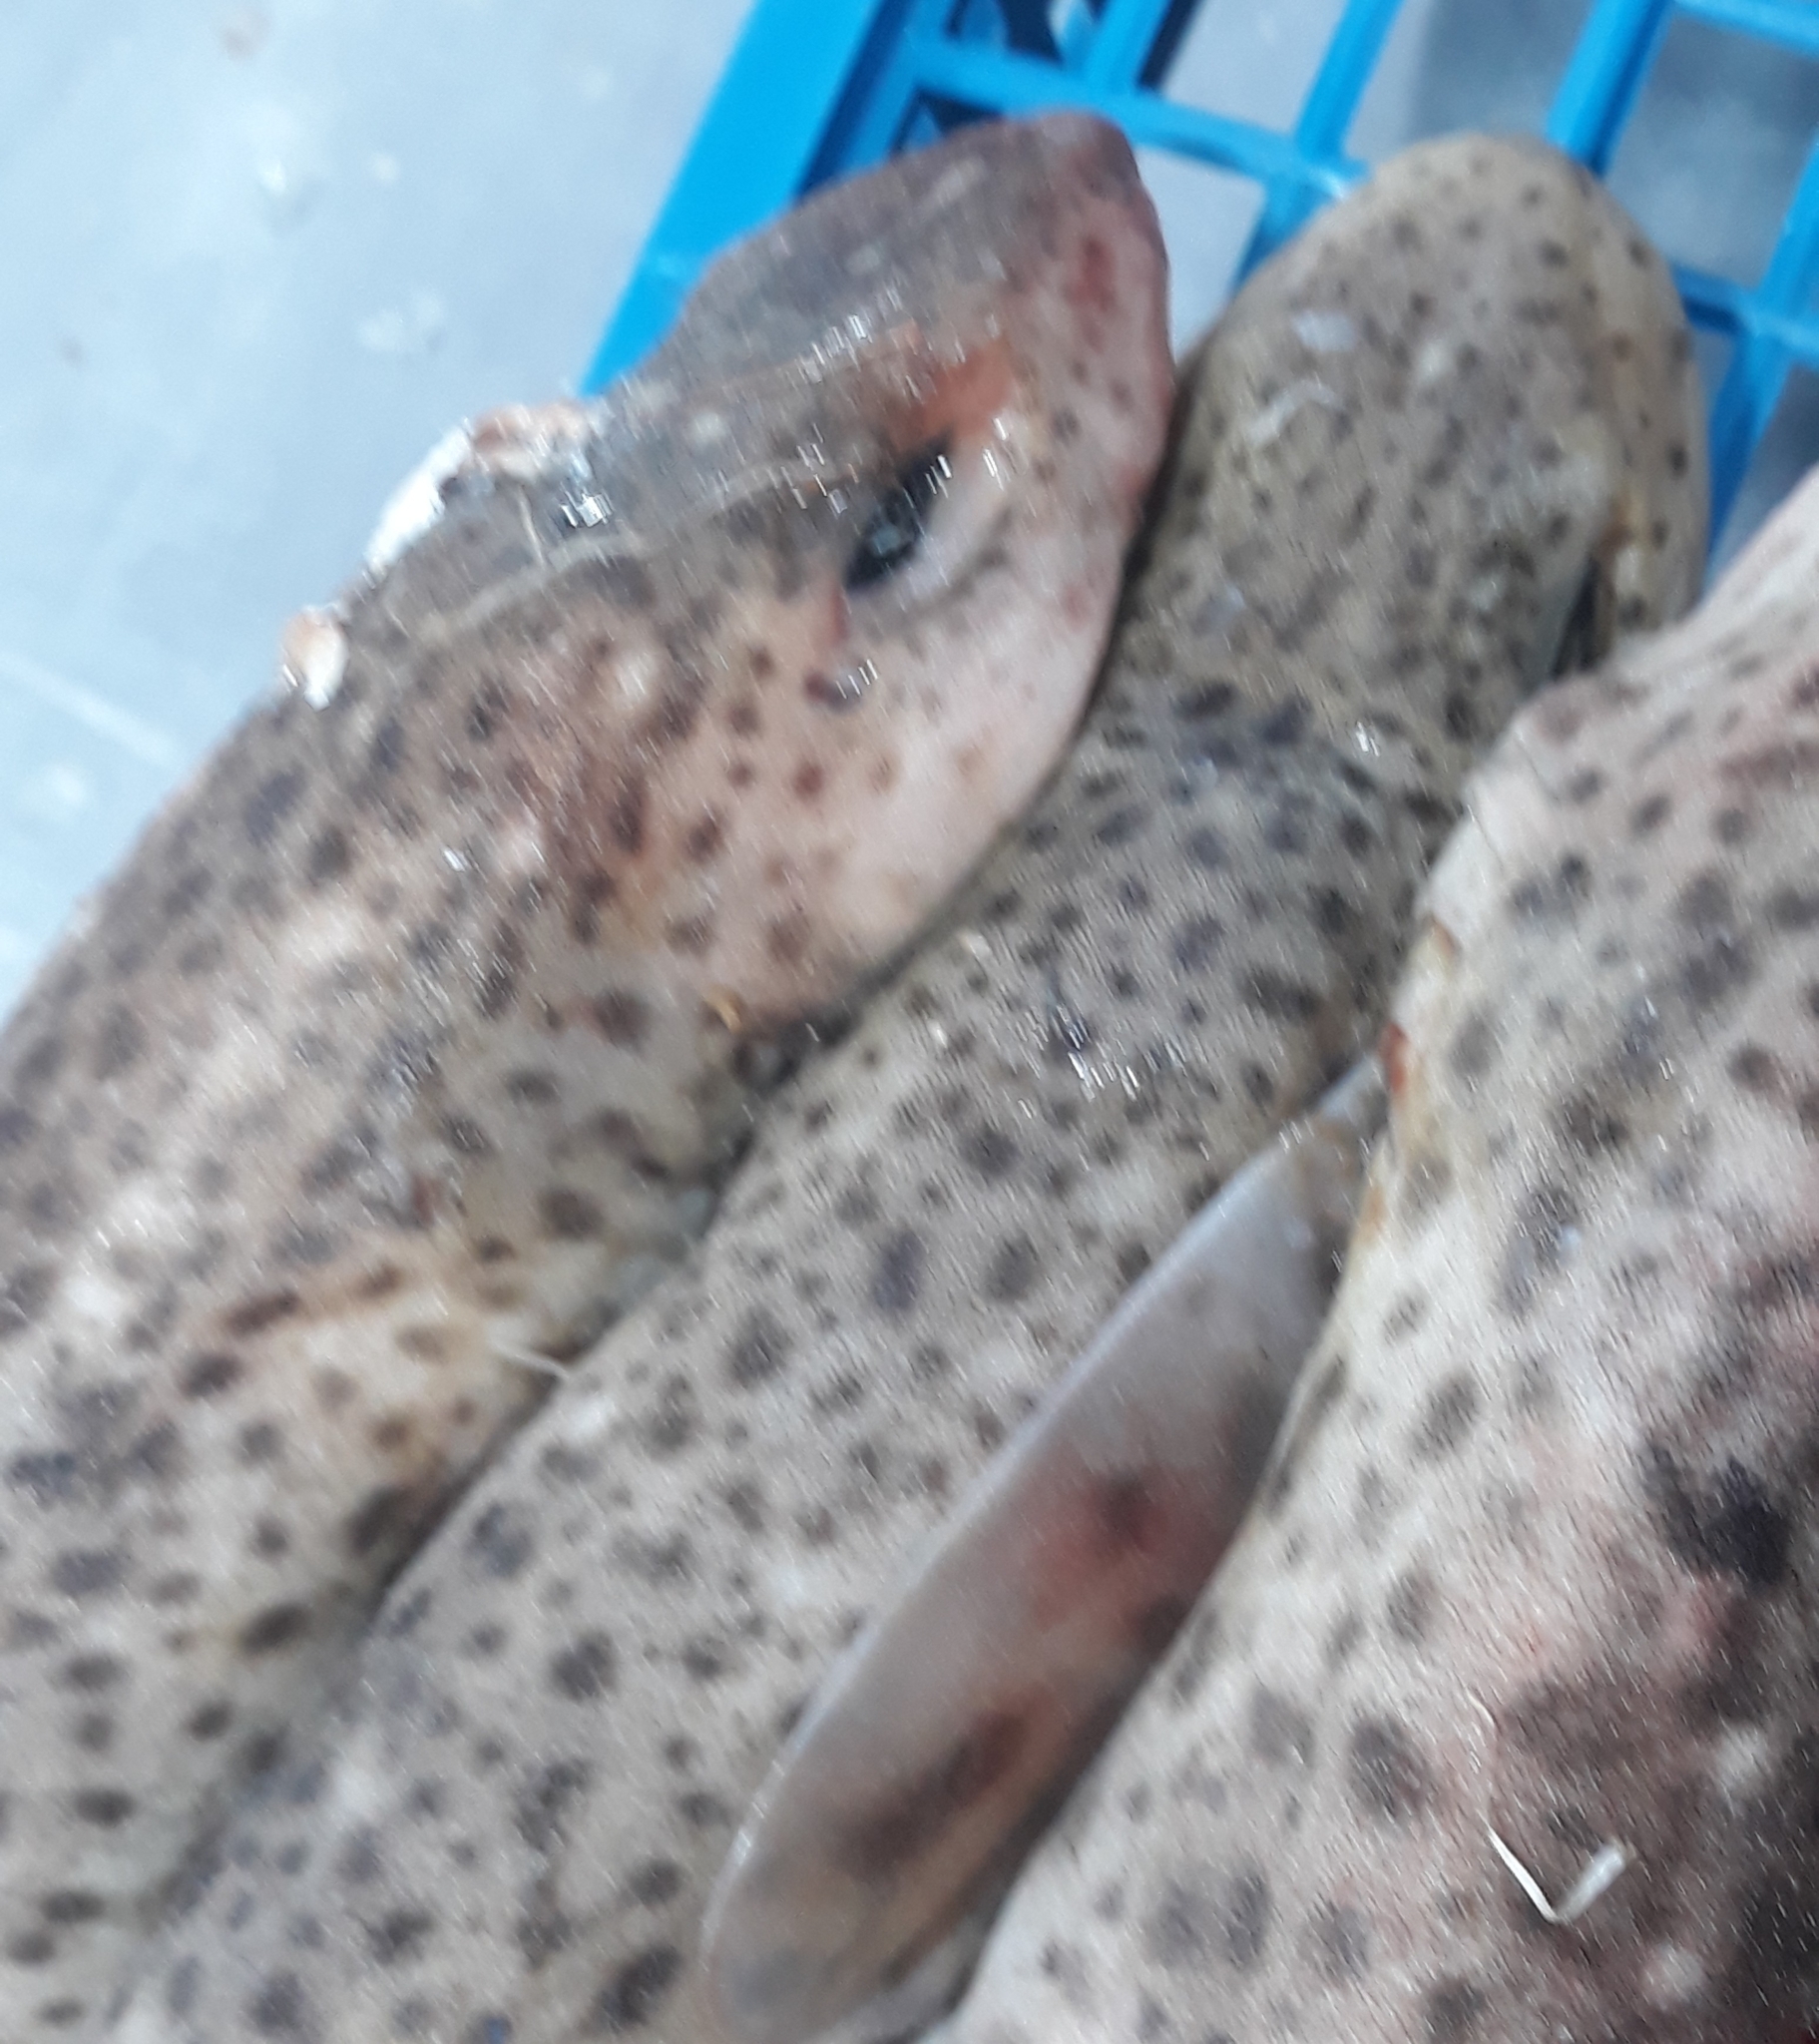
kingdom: Animalia
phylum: Chordata
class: Elasmobranchii
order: Carcharhiniformes
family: Scyliorhinidae
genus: Scyliorhinus
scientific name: Scyliorhinus canicula
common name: Lesser spotted dogfish
